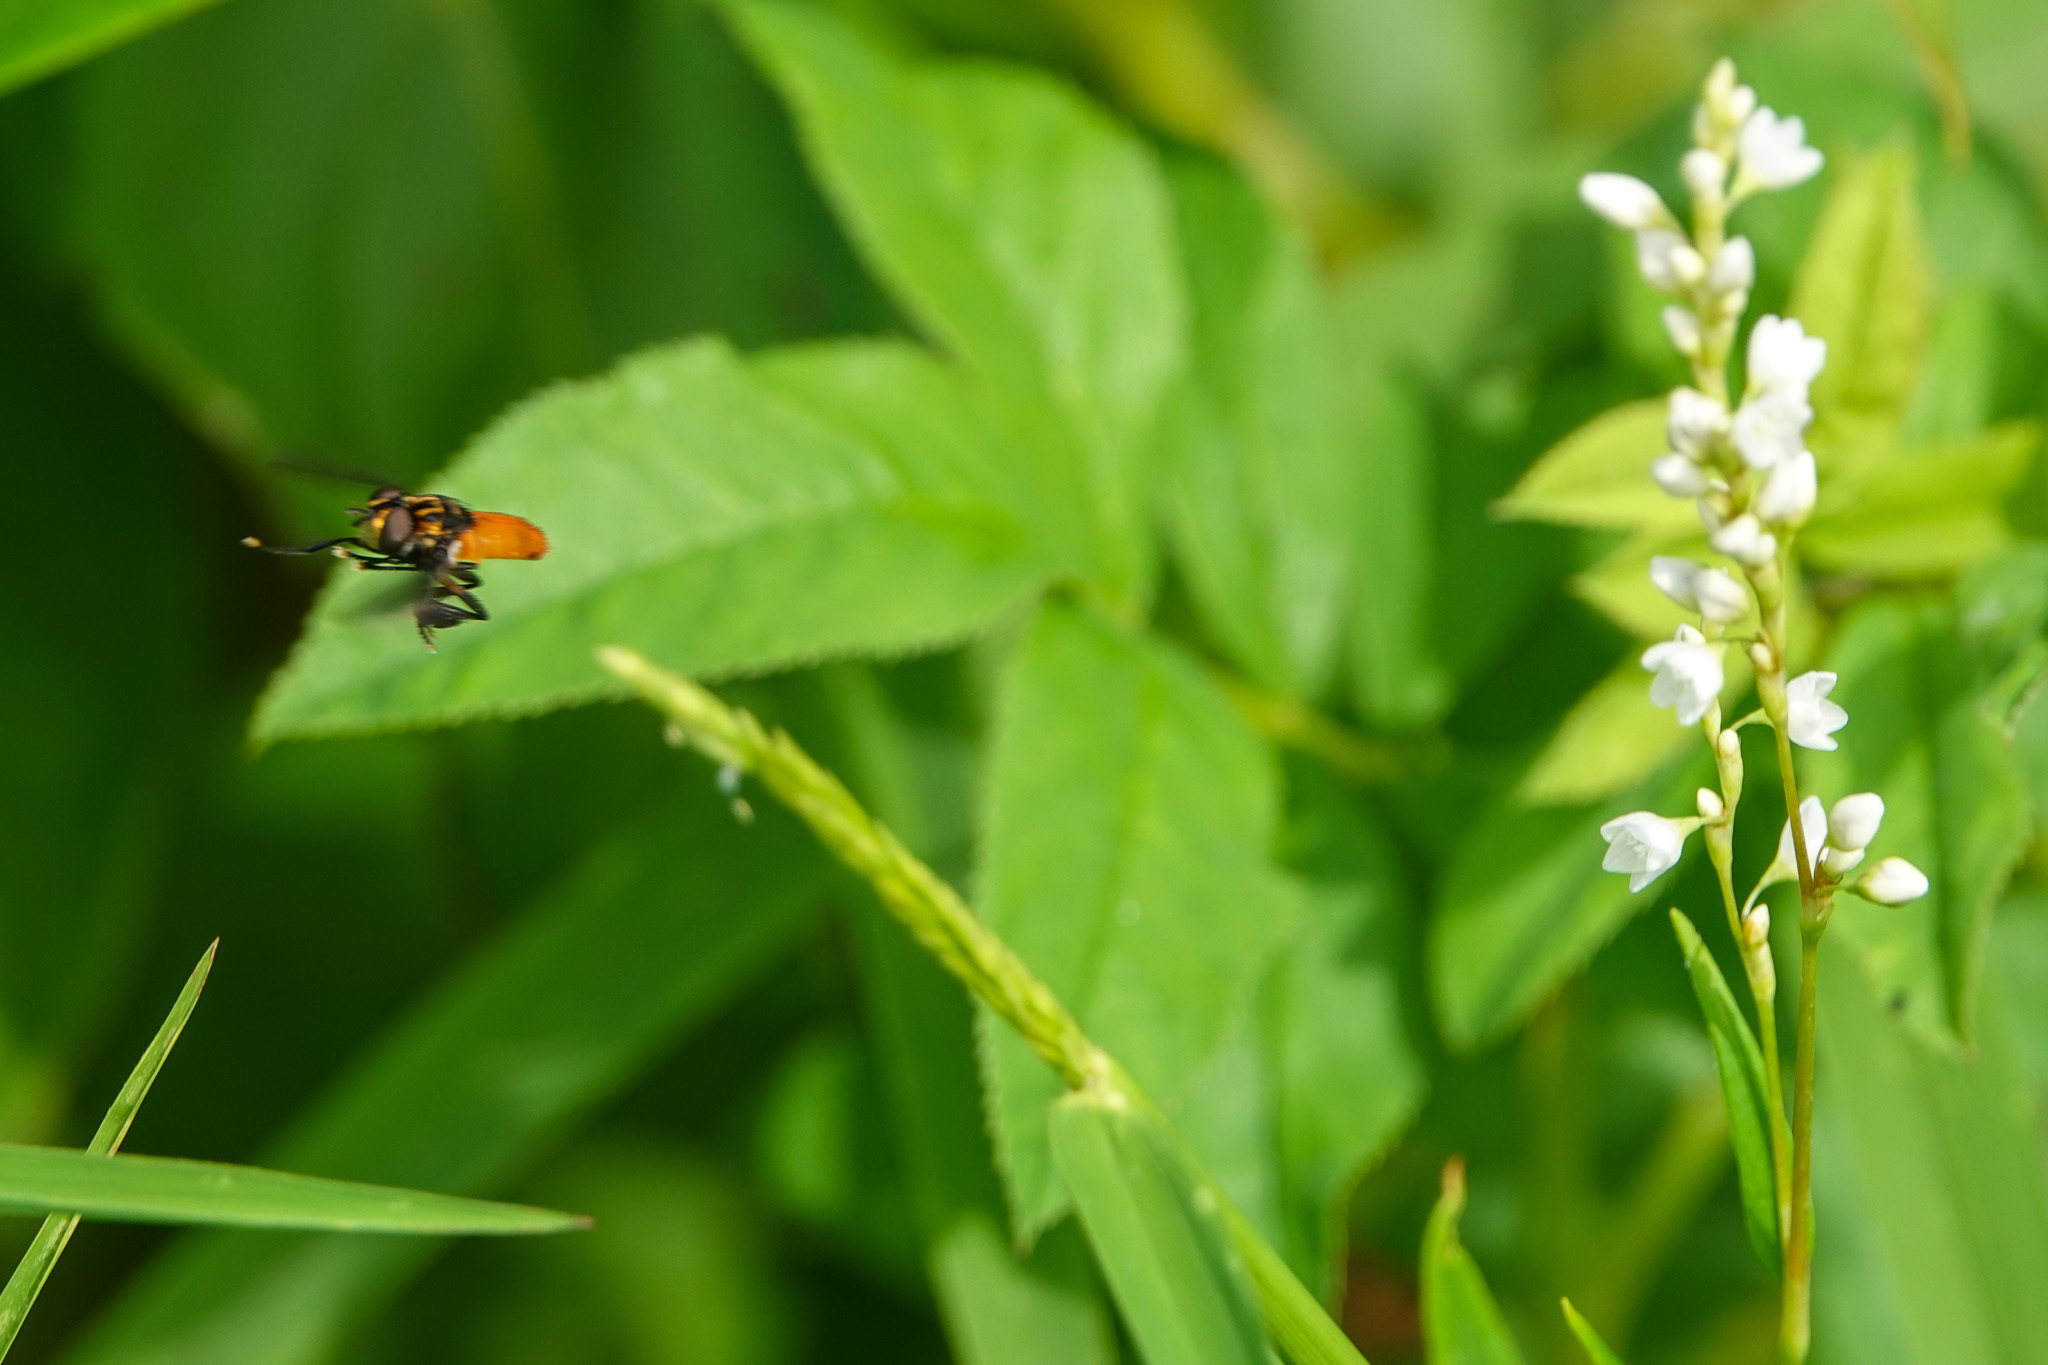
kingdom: Animalia
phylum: Arthropoda
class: Insecta
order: Diptera
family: Tachinidae
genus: Trichopoda
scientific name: Trichopoda pennipes
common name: Tachinid fly
